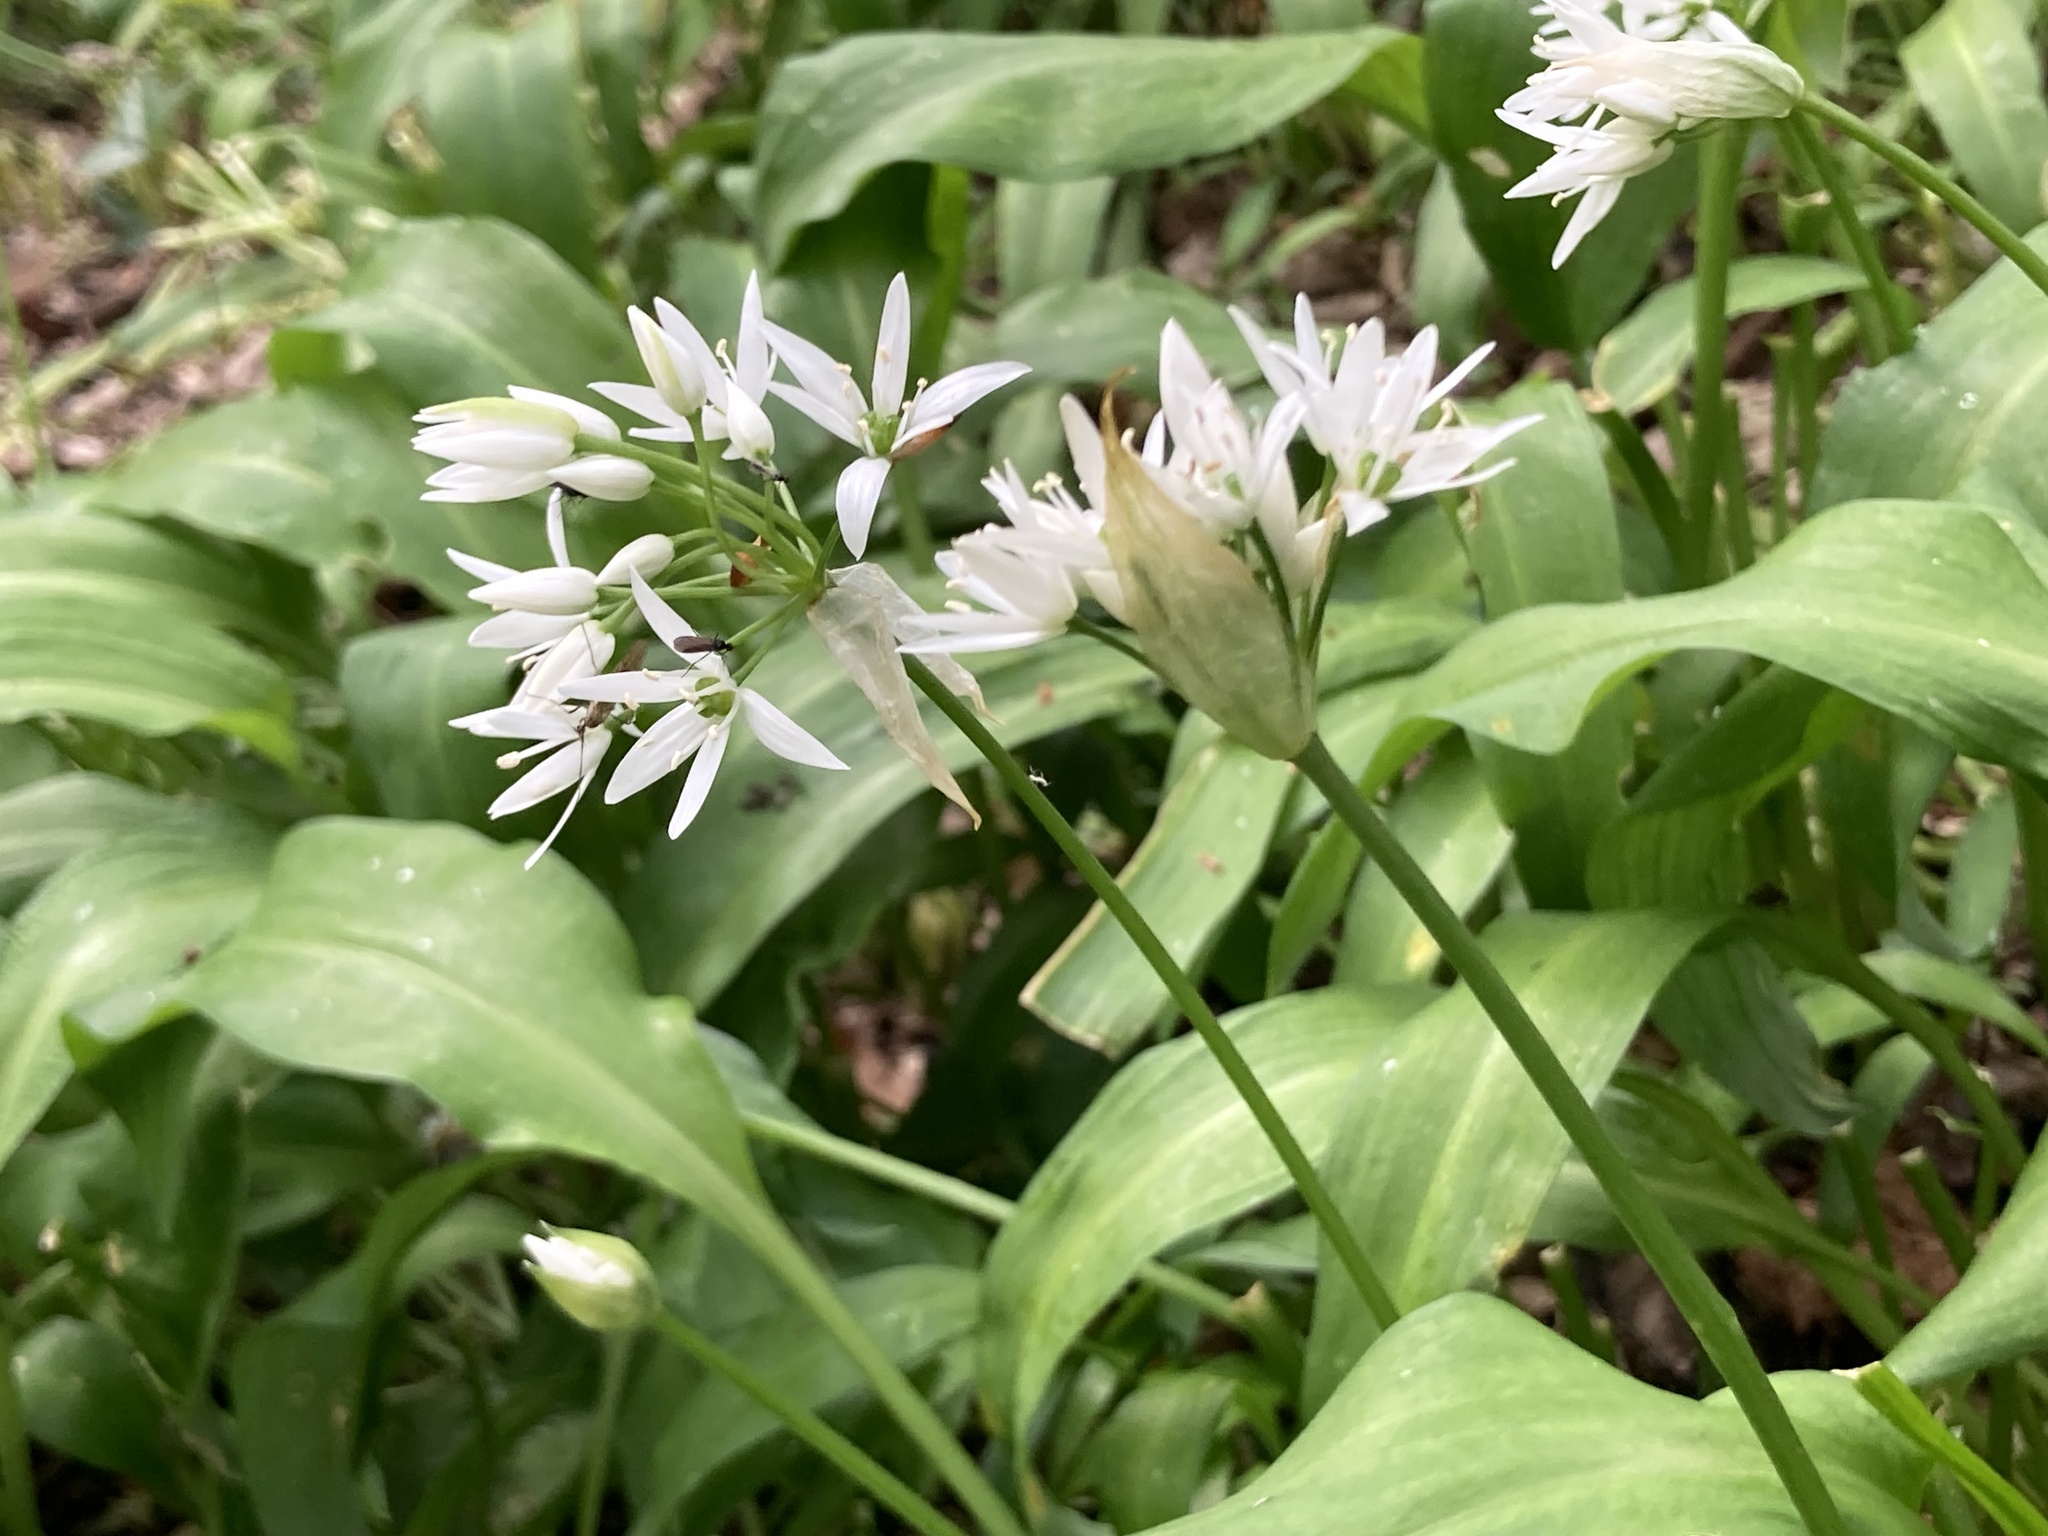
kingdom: Plantae
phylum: Tracheophyta
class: Liliopsida
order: Asparagales
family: Amaryllidaceae
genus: Allium
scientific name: Allium ursinum
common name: Ramsons
